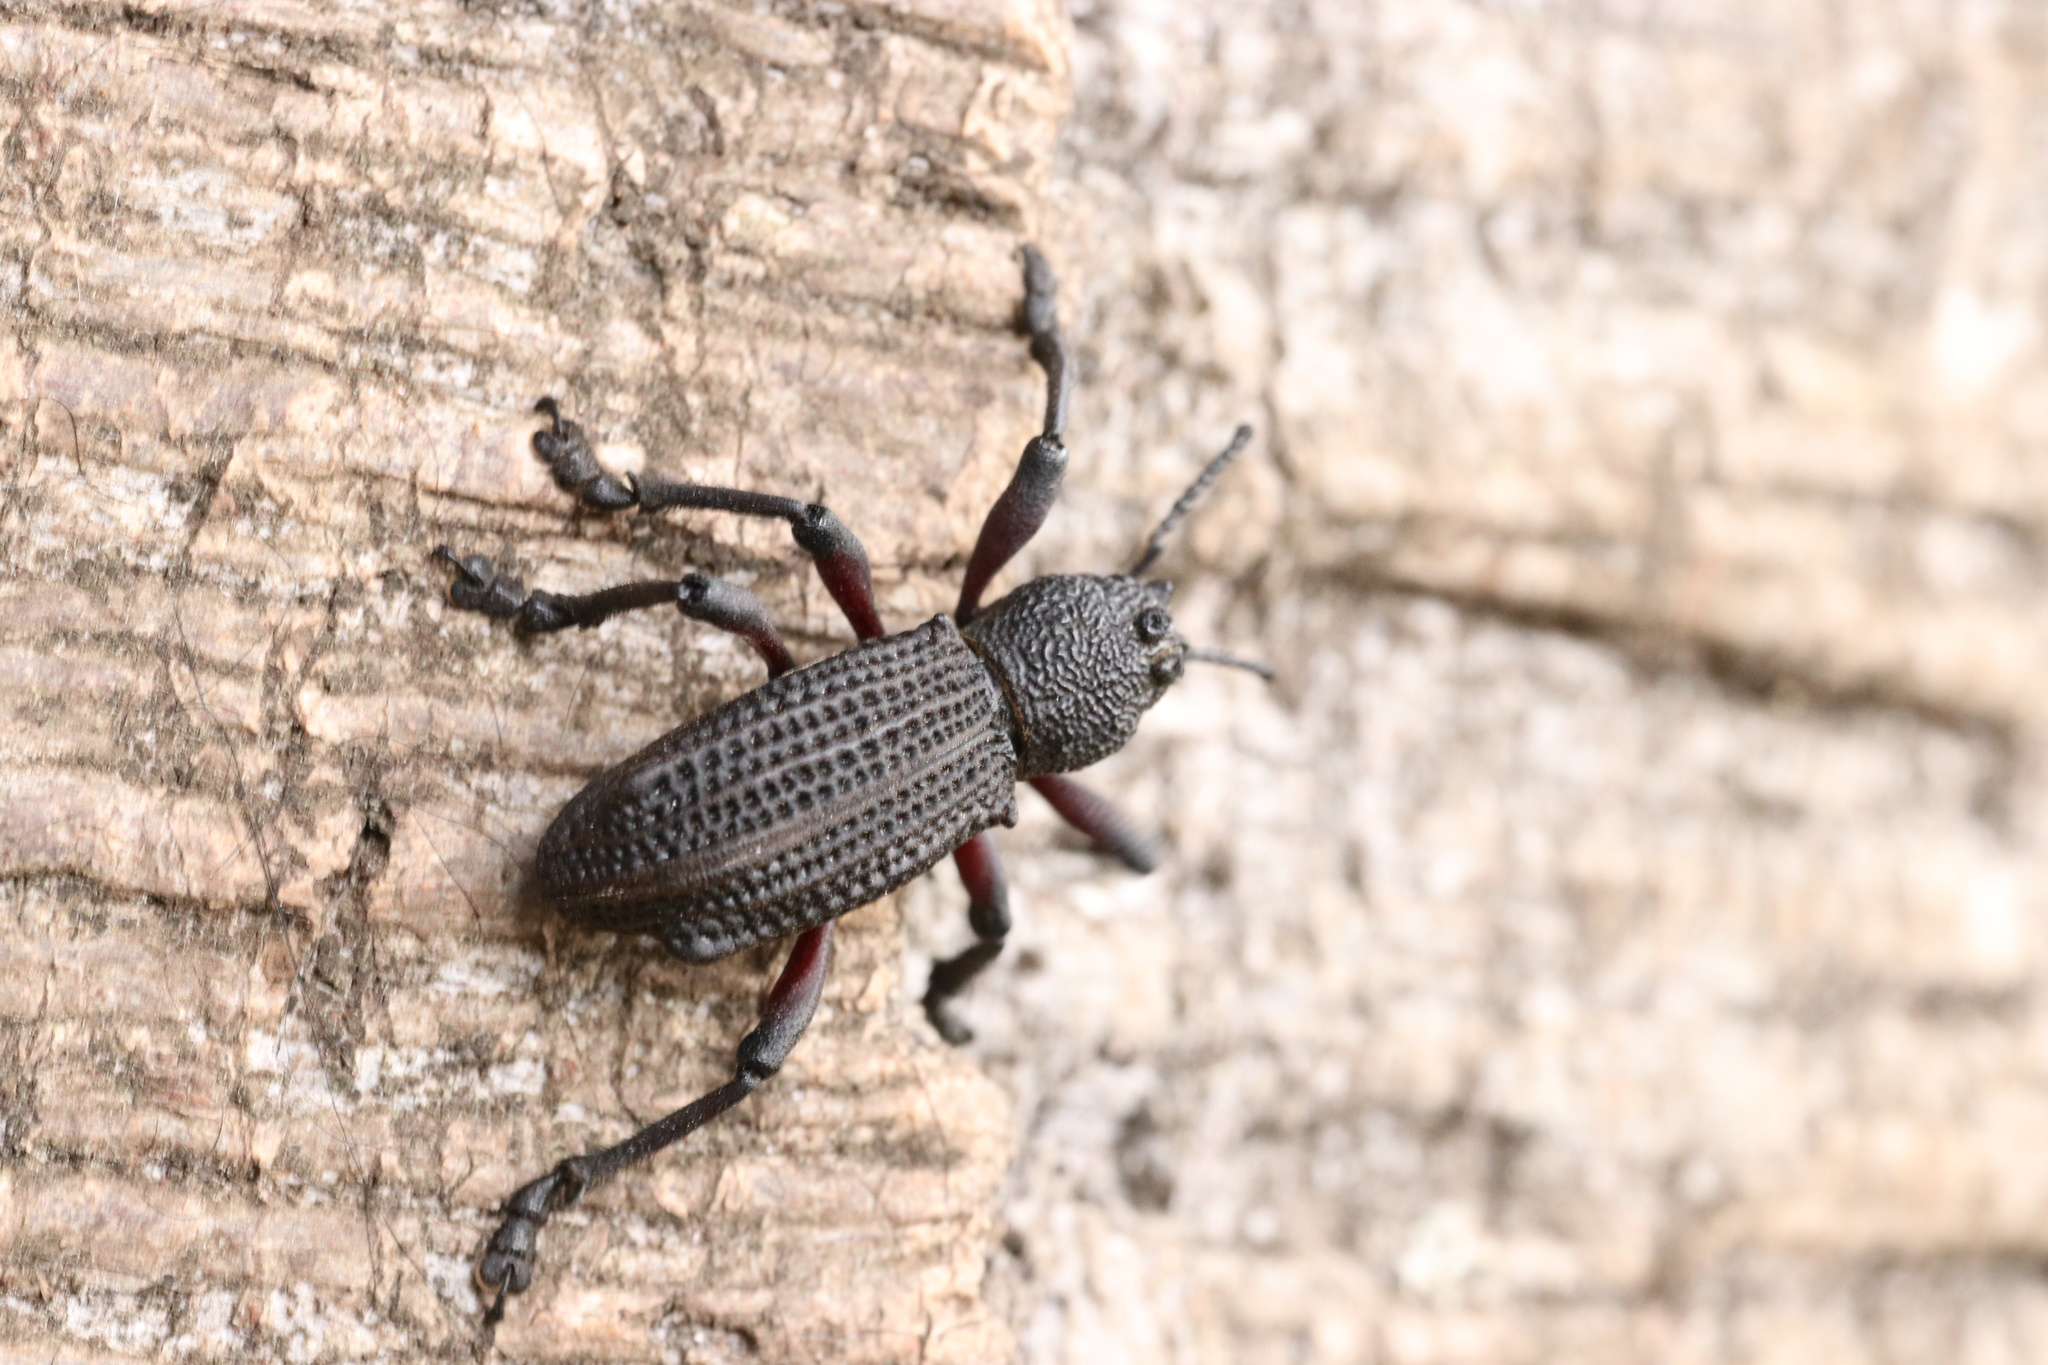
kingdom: Animalia
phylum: Arthropoda
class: Insecta
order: Coleoptera
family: Curculionidae
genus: Aegorhinus
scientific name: Aegorhinus
